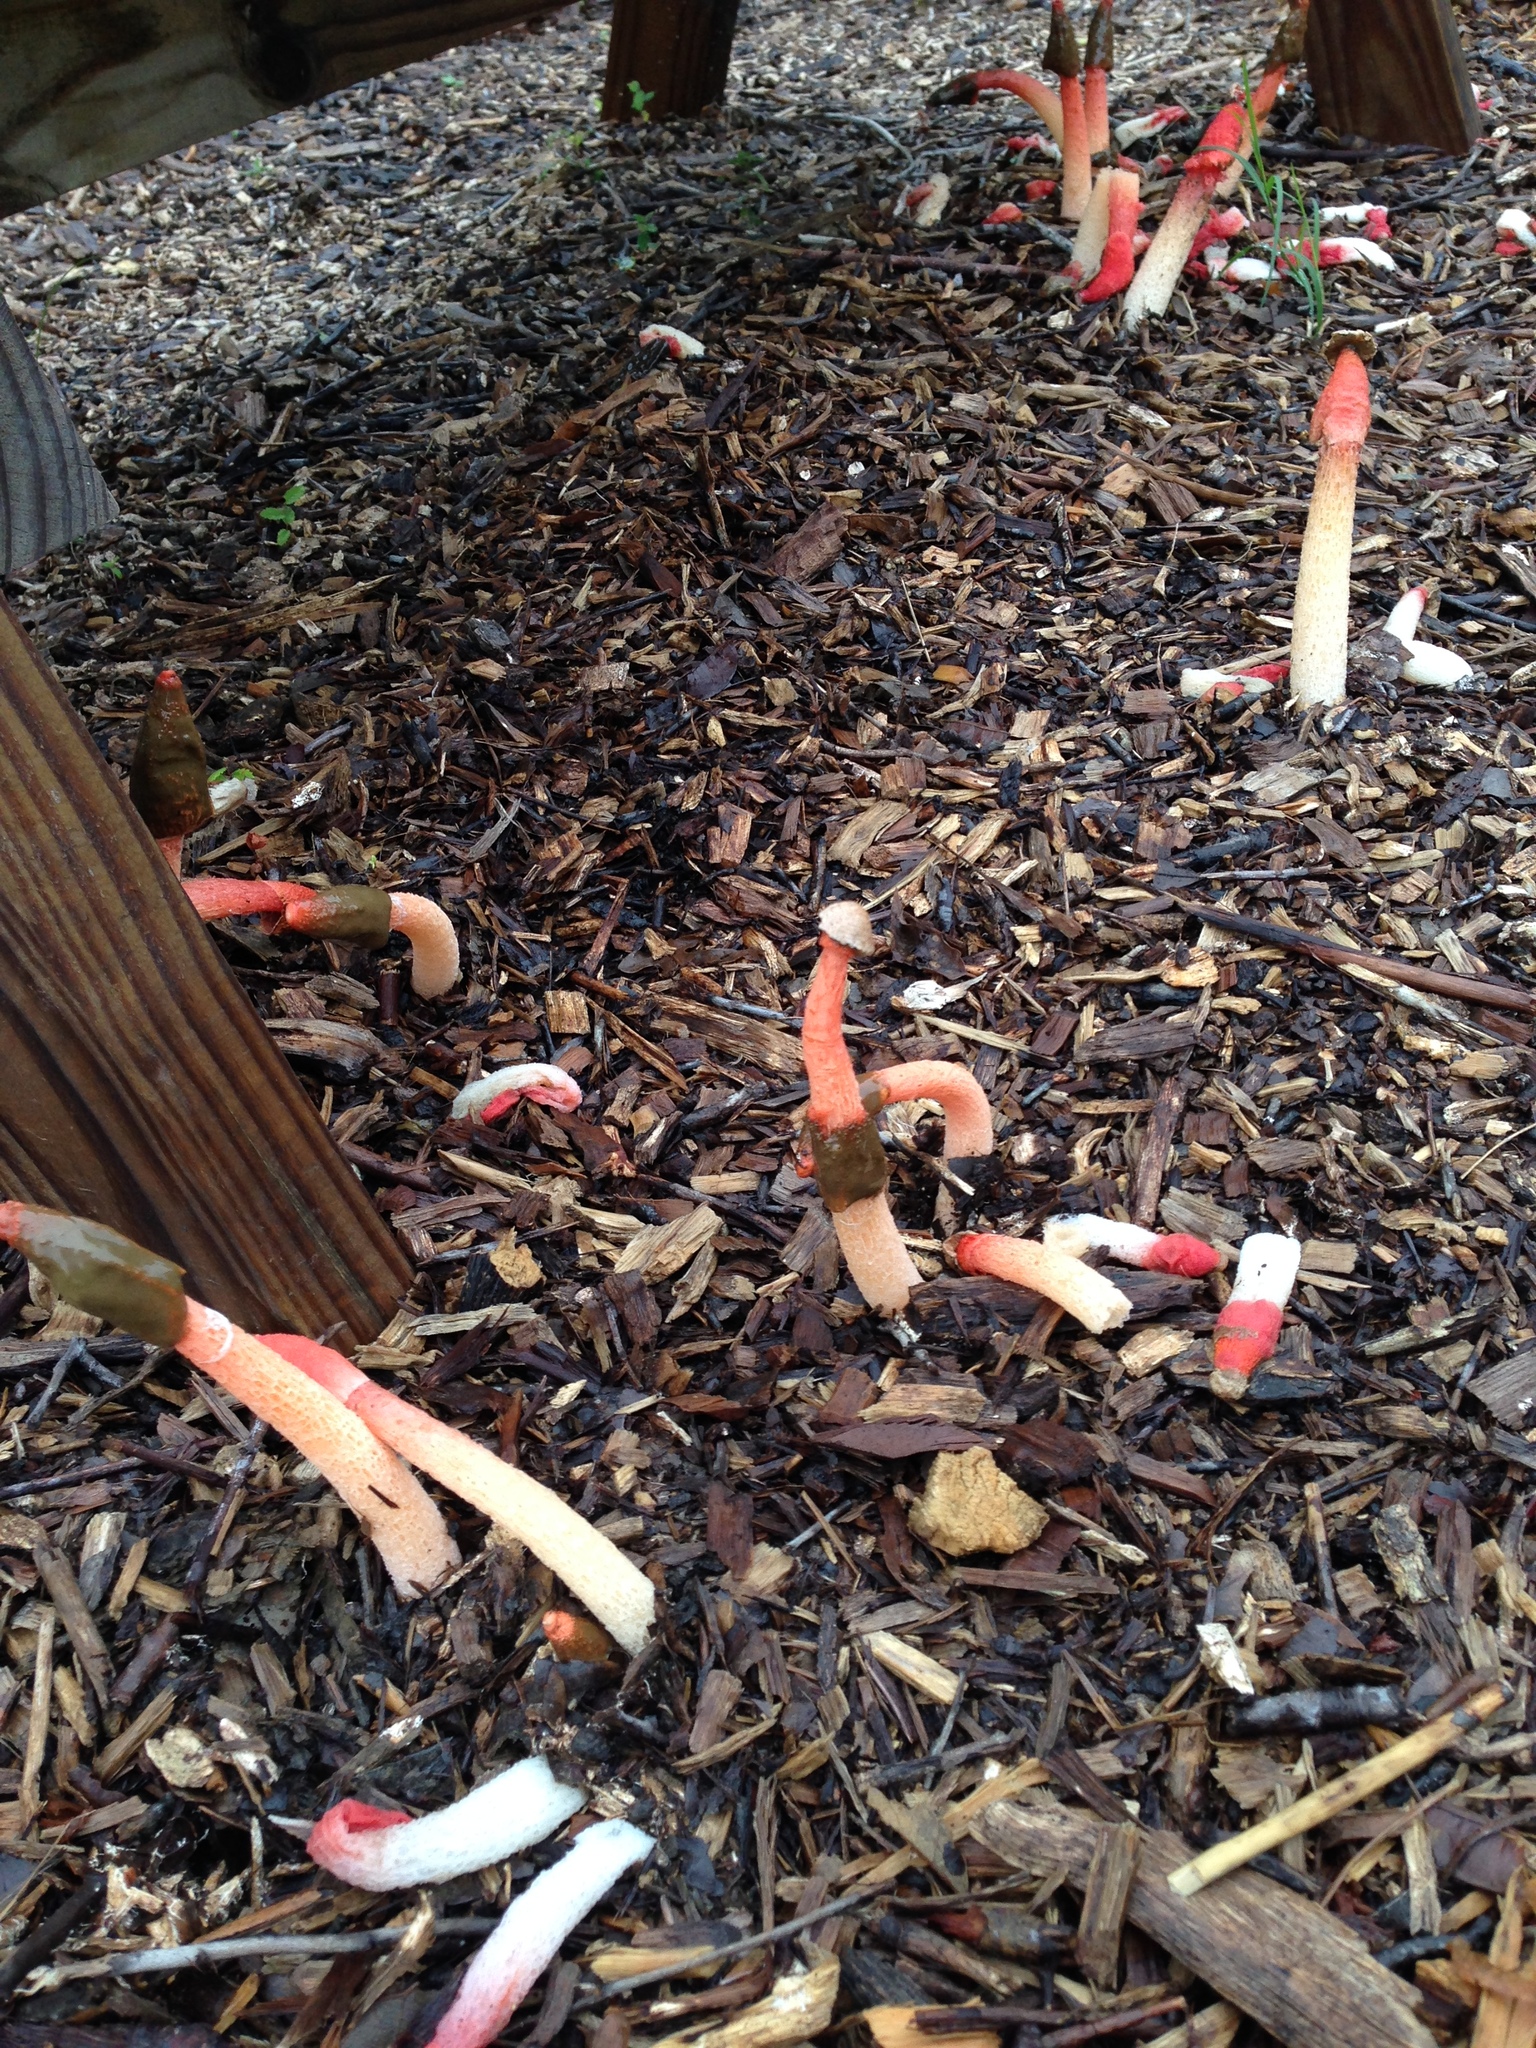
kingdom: Fungi
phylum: Basidiomycota
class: Agaricomycetes
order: Phallales
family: Phallaceae
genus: Phallus
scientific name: Phallus rugulosus
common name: Wrinkly stinkhorn
